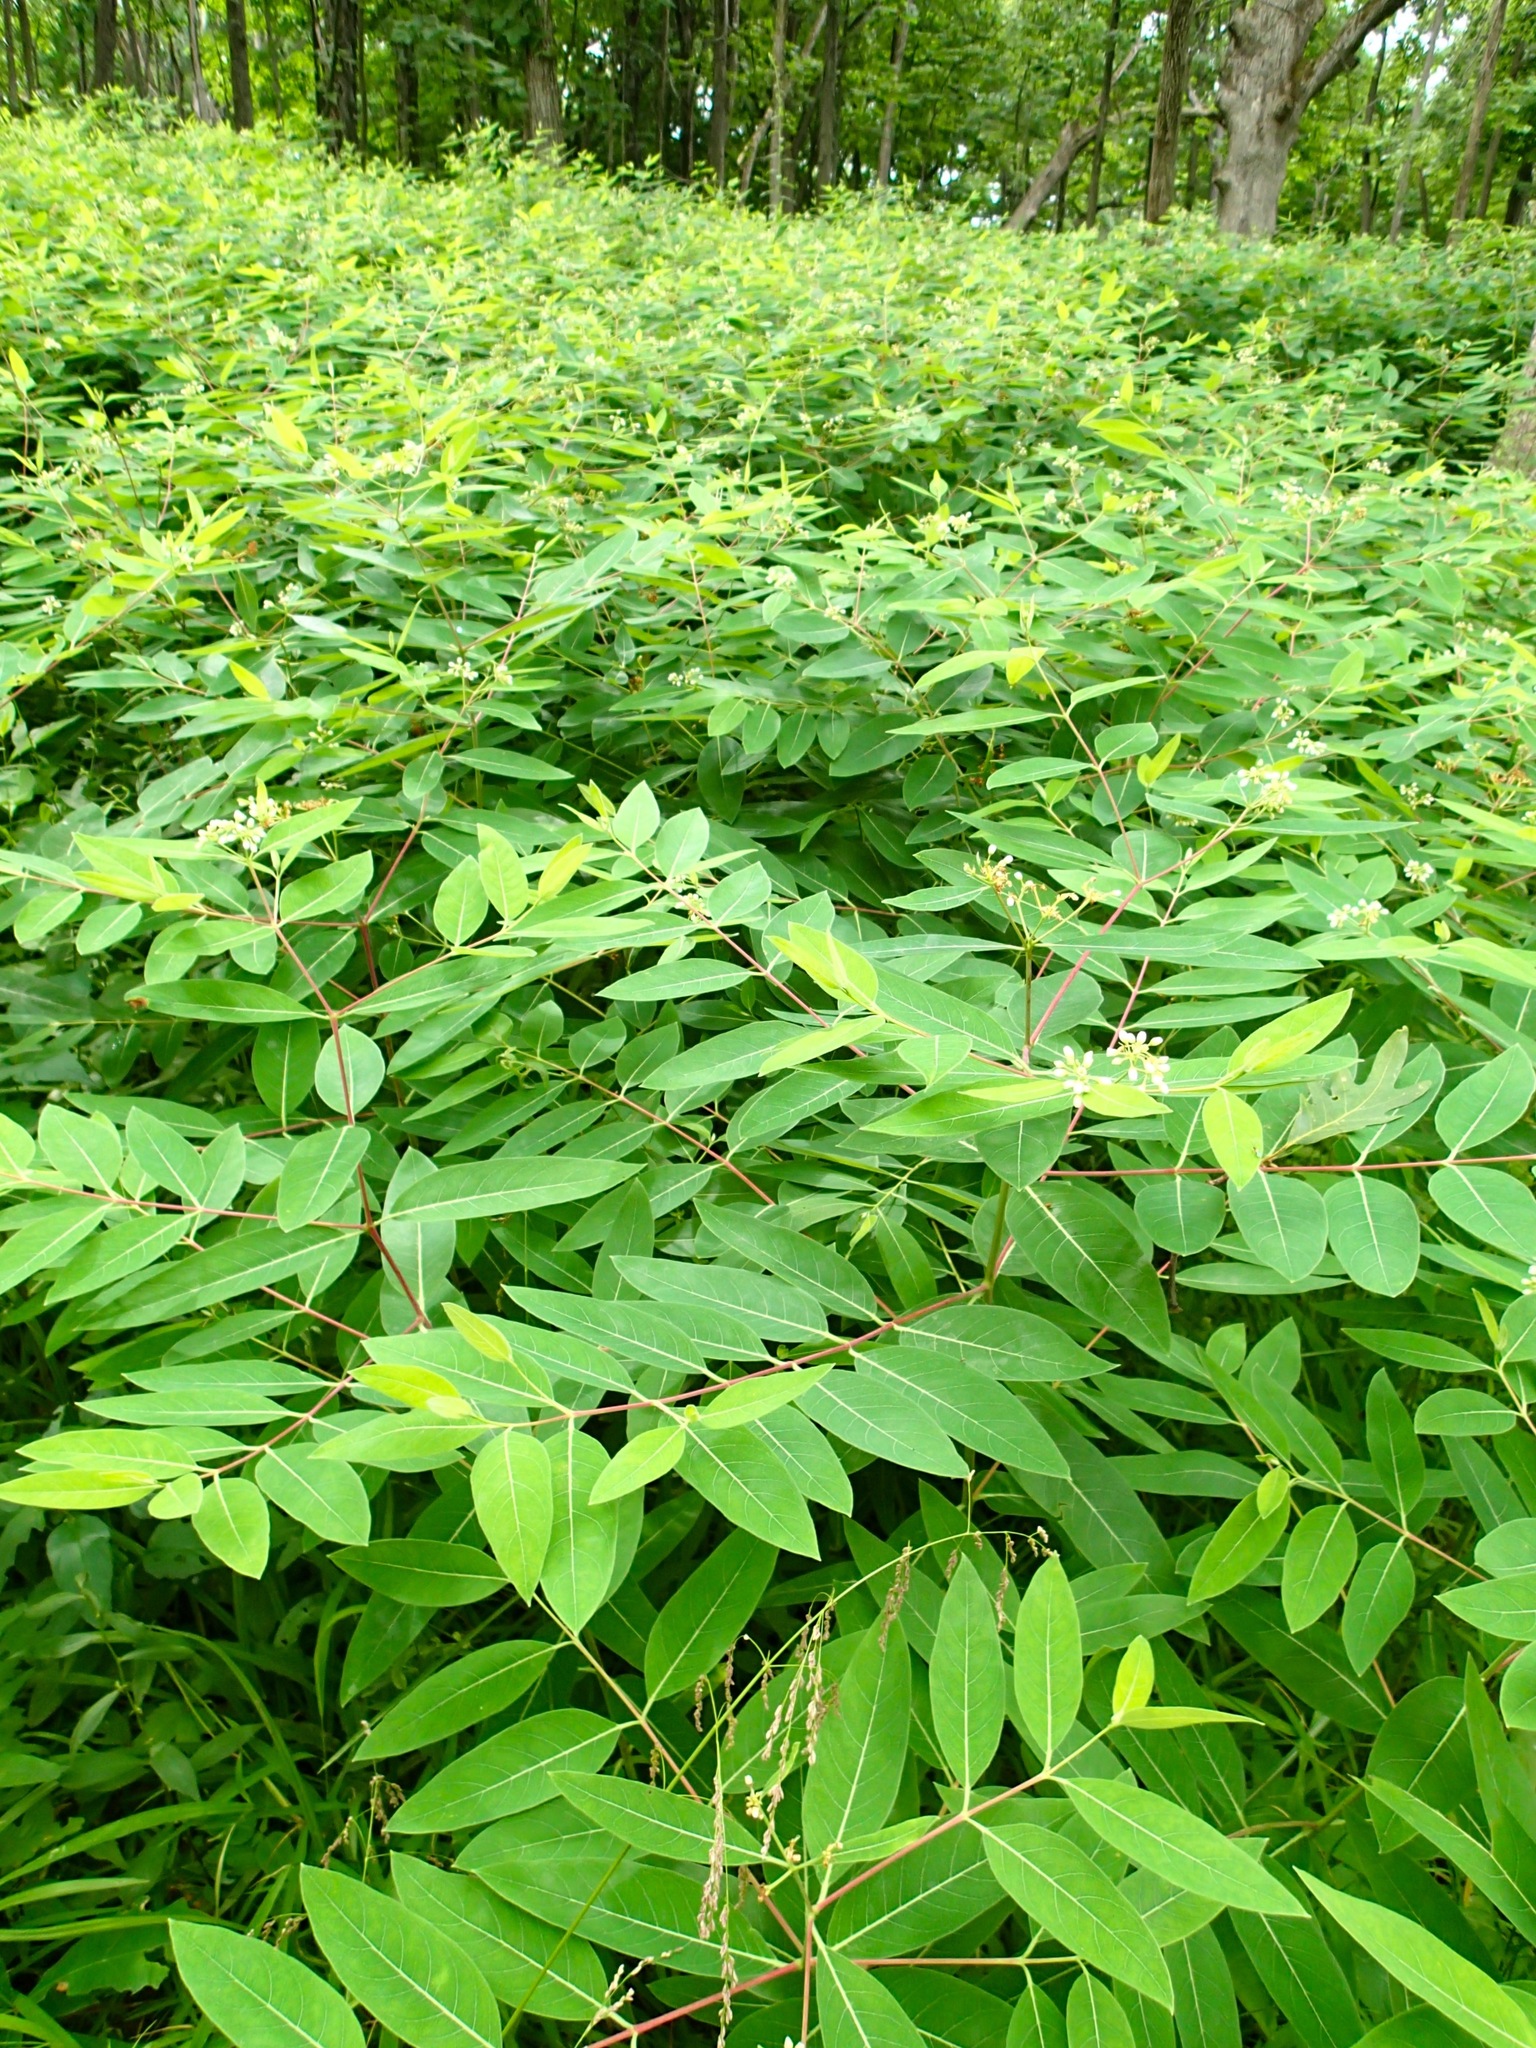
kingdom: Plantae
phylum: Tracheophyta
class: Magnoliopsida
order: Gentianales
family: Apocynaceae
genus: Apocynum
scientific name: Apocynum cannabinum
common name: Hemp dogbane
